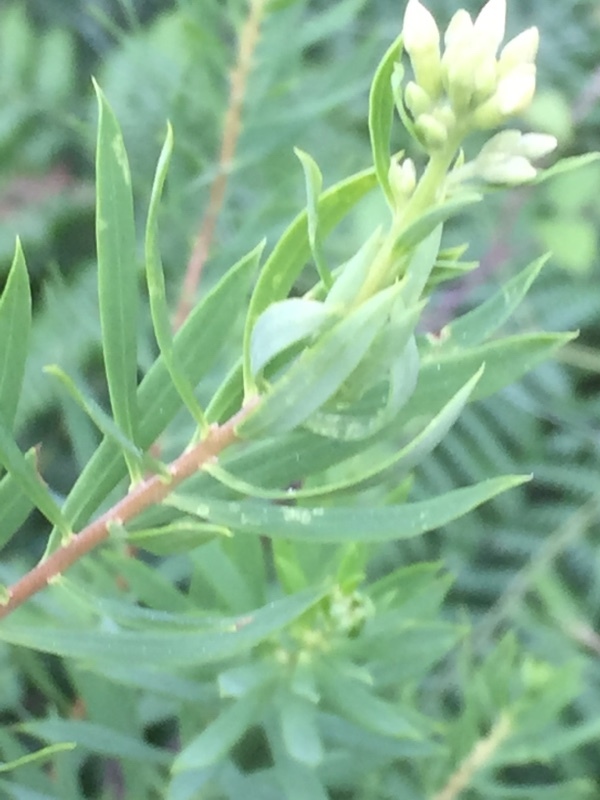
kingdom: Plantae
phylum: Tracheophyta
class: Magnoliopsida
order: Malvales
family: Thymelaeaceae
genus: Daphne
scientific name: Daphne gnidium
